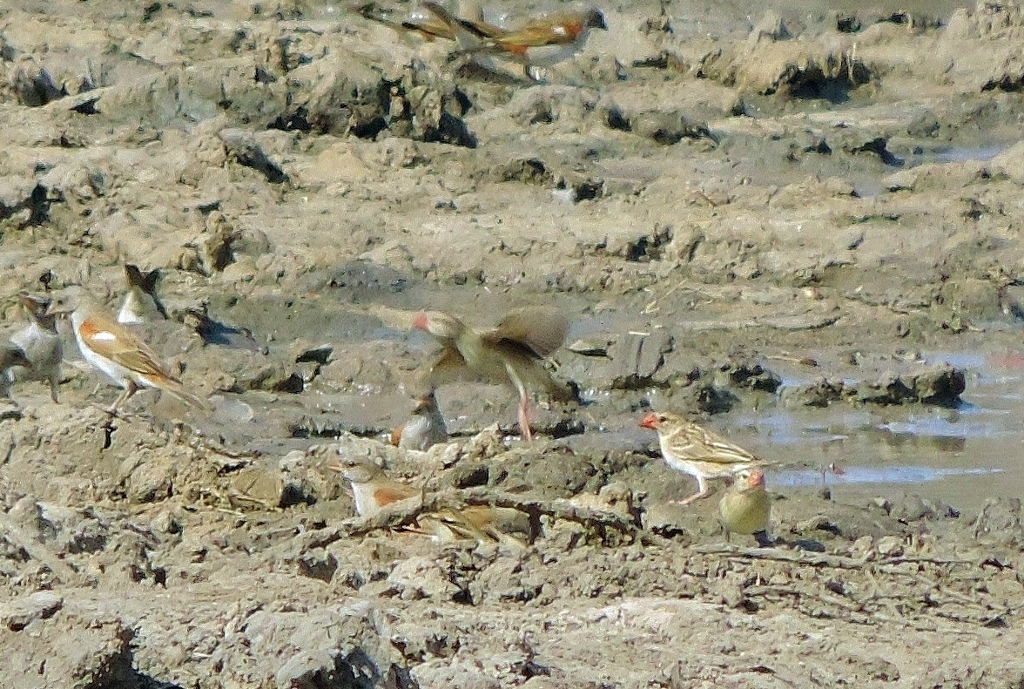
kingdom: Animalia
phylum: Chordata
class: Aves
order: Passeriformes
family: Ploceidae
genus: Quelea
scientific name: Quelea quelea
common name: Red-billed quelea
